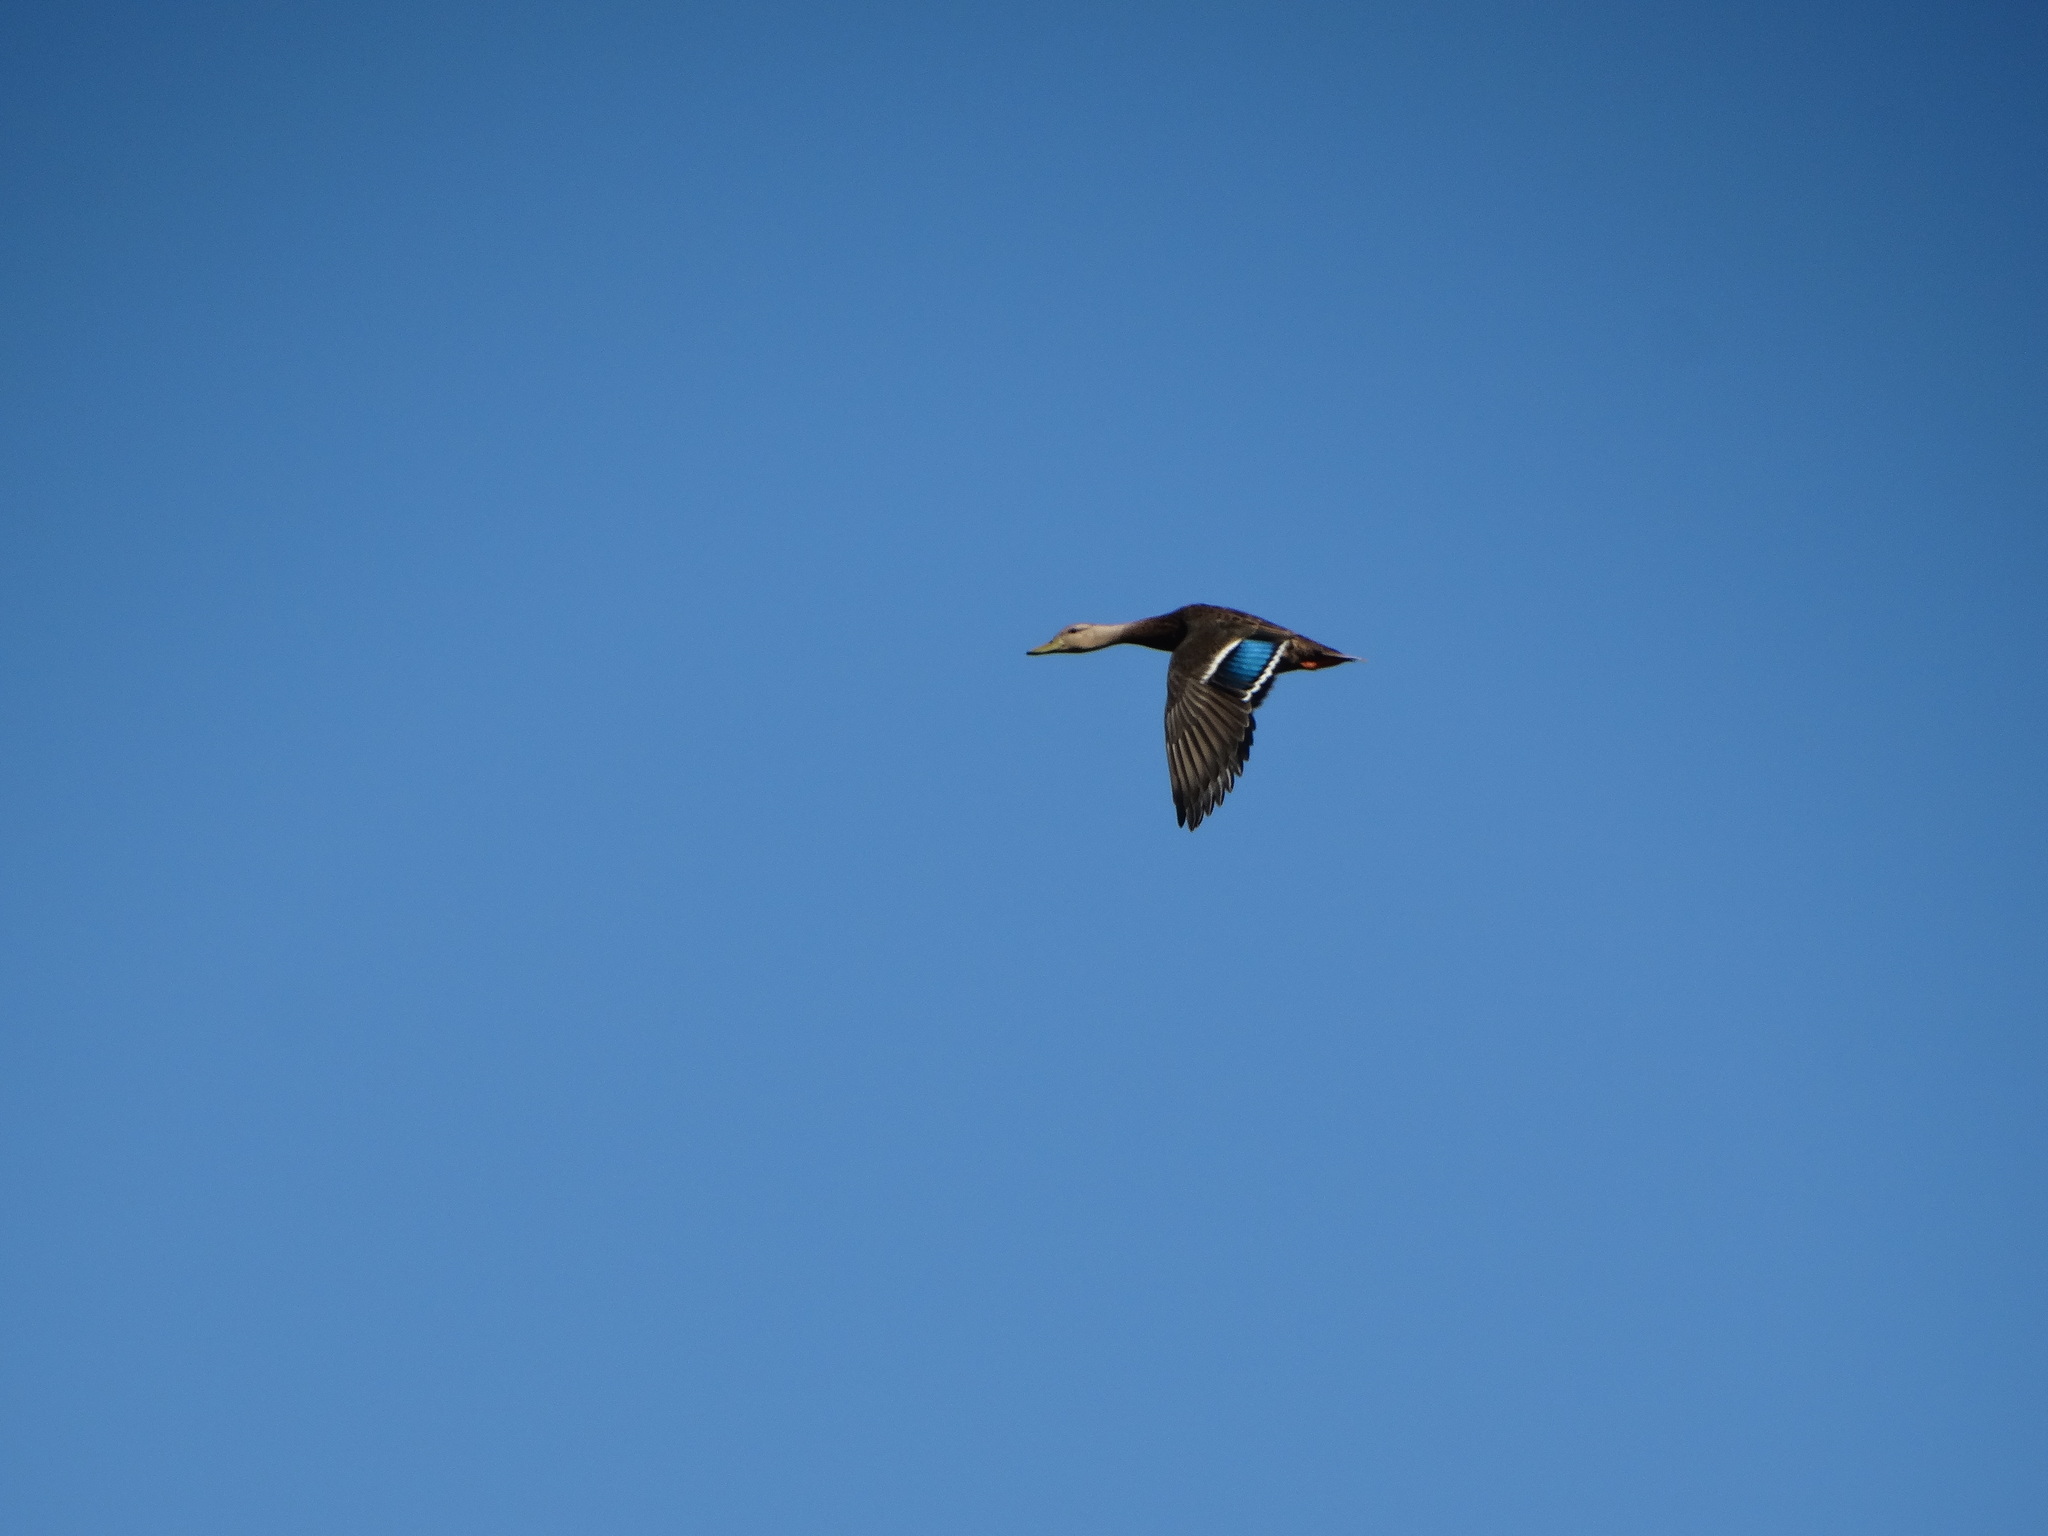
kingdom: Animalia
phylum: Chordata
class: Aves
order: Anseriformes
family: Anatidae
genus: Anas
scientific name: Anas diazi
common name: Mexican duck
